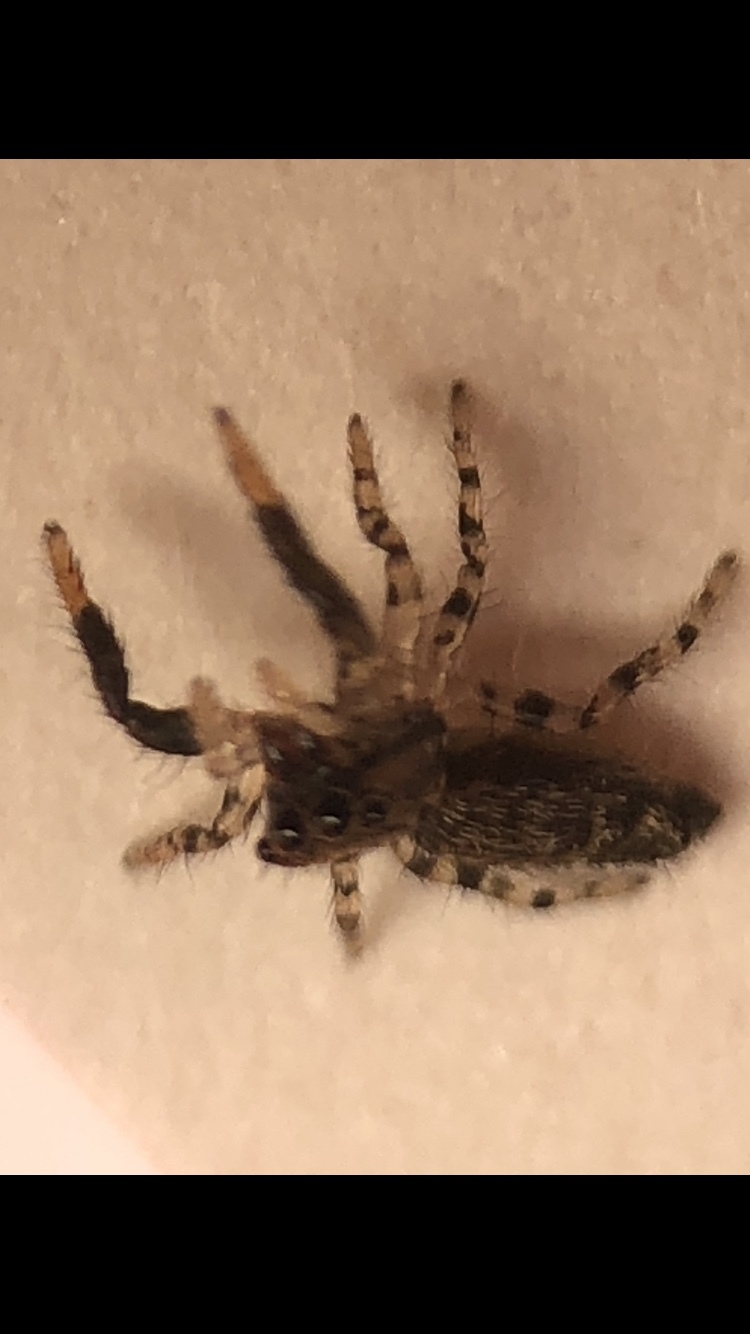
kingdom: Animalia
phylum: Arthropoda
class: Arachnida
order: Araneae
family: Salticidae
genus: Marpissa
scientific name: Marpissa muscosa
